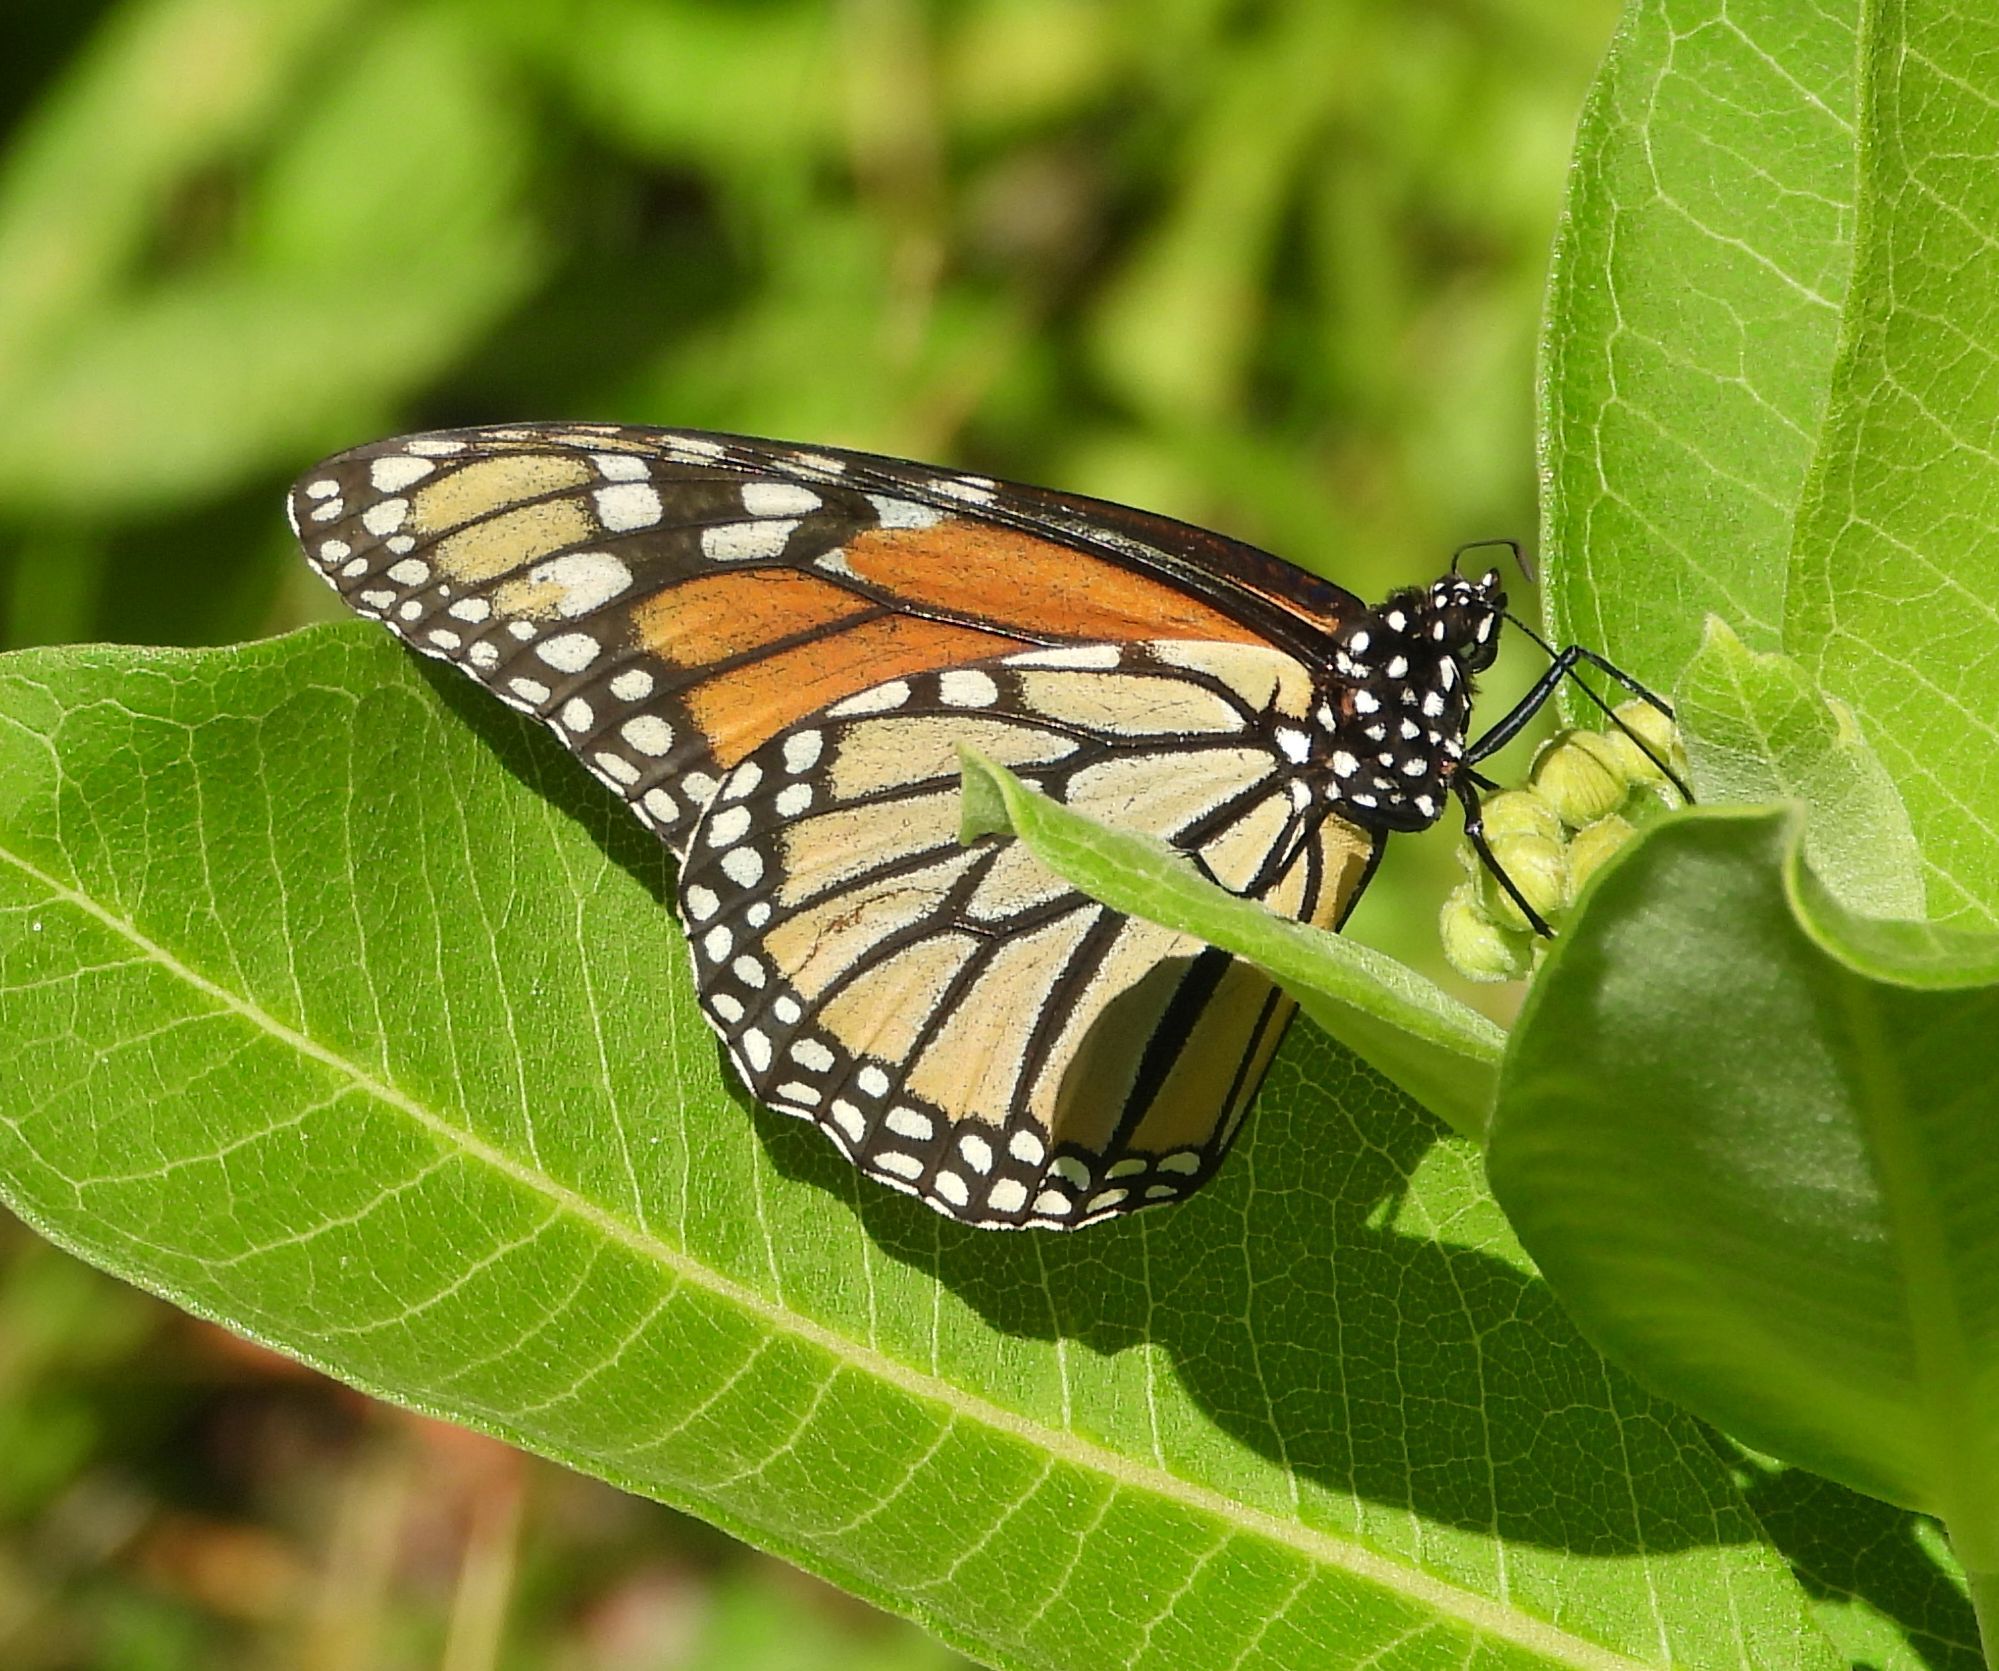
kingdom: Animalia
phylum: Arthropoda
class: Insecta
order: Lepidoptera
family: Nymphalidae
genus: Danaus
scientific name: Danaus plexippus
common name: Monarch
